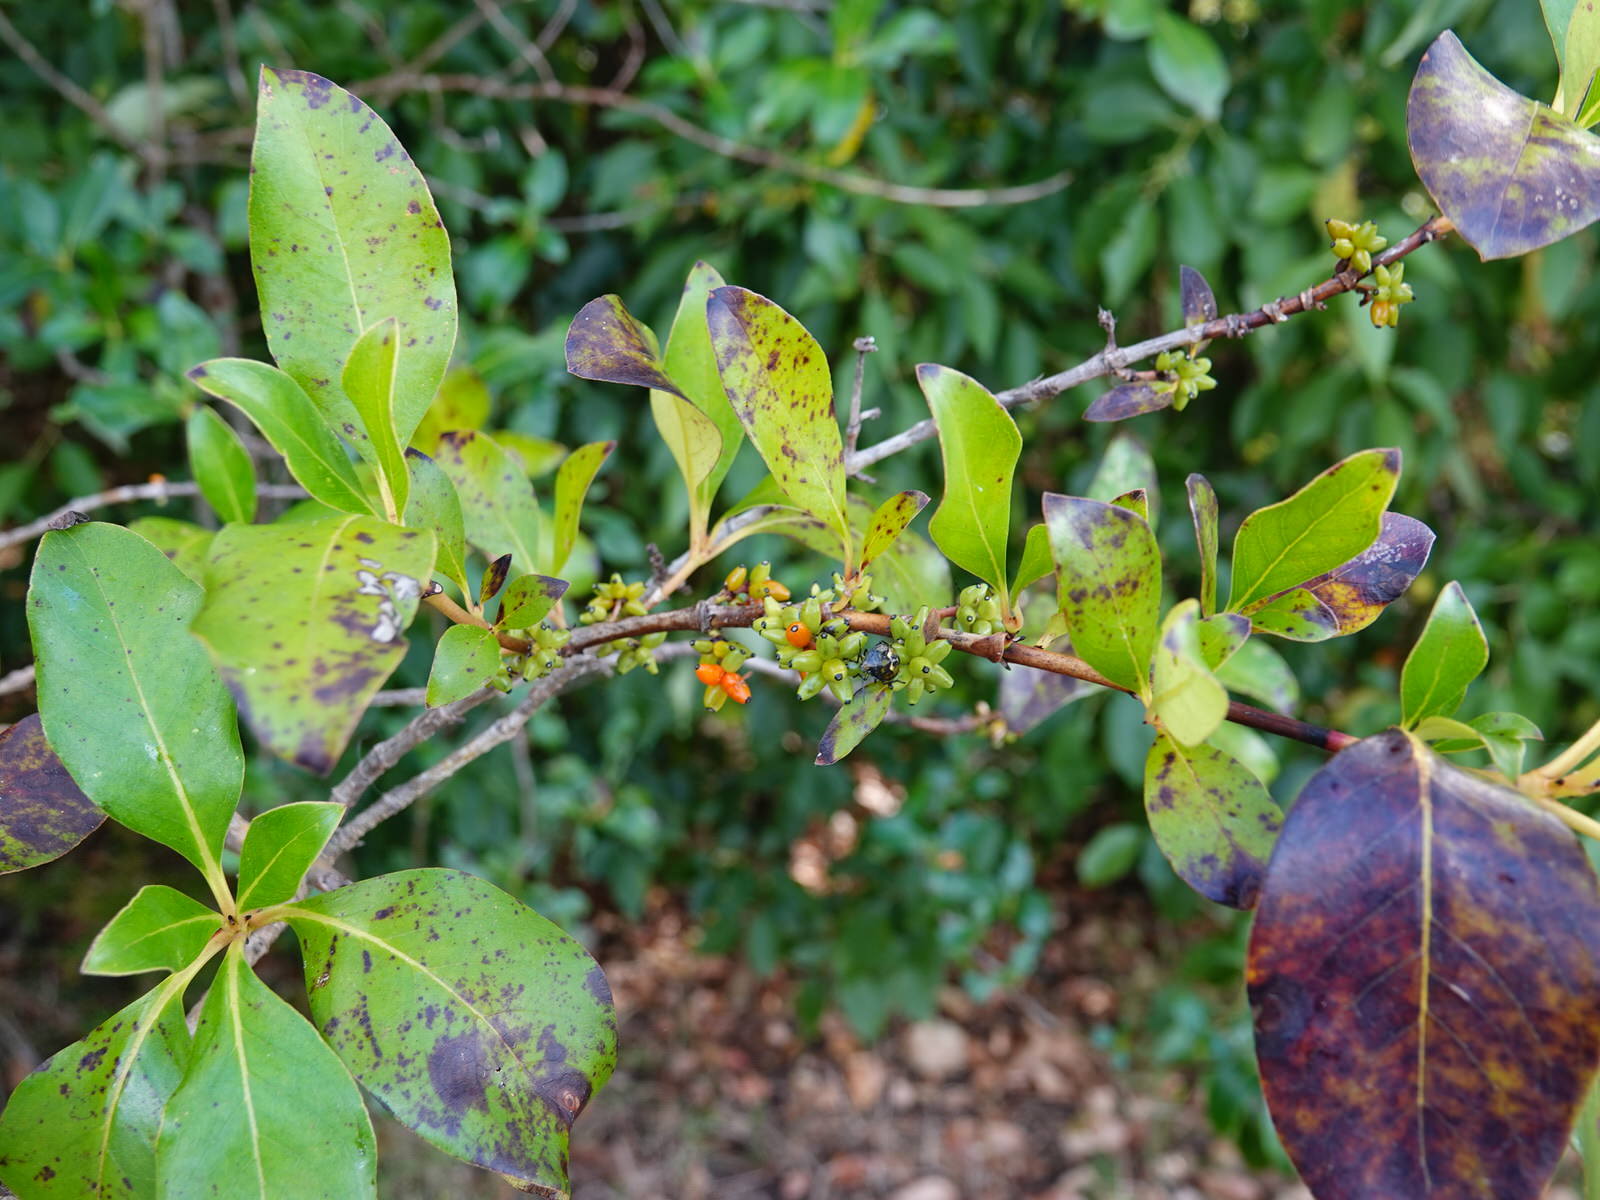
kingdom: Animalia
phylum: Arthropoda
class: Insecta
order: Hemiptera
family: Pentatomidae
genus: Glaucias
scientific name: Glaucias amyota
